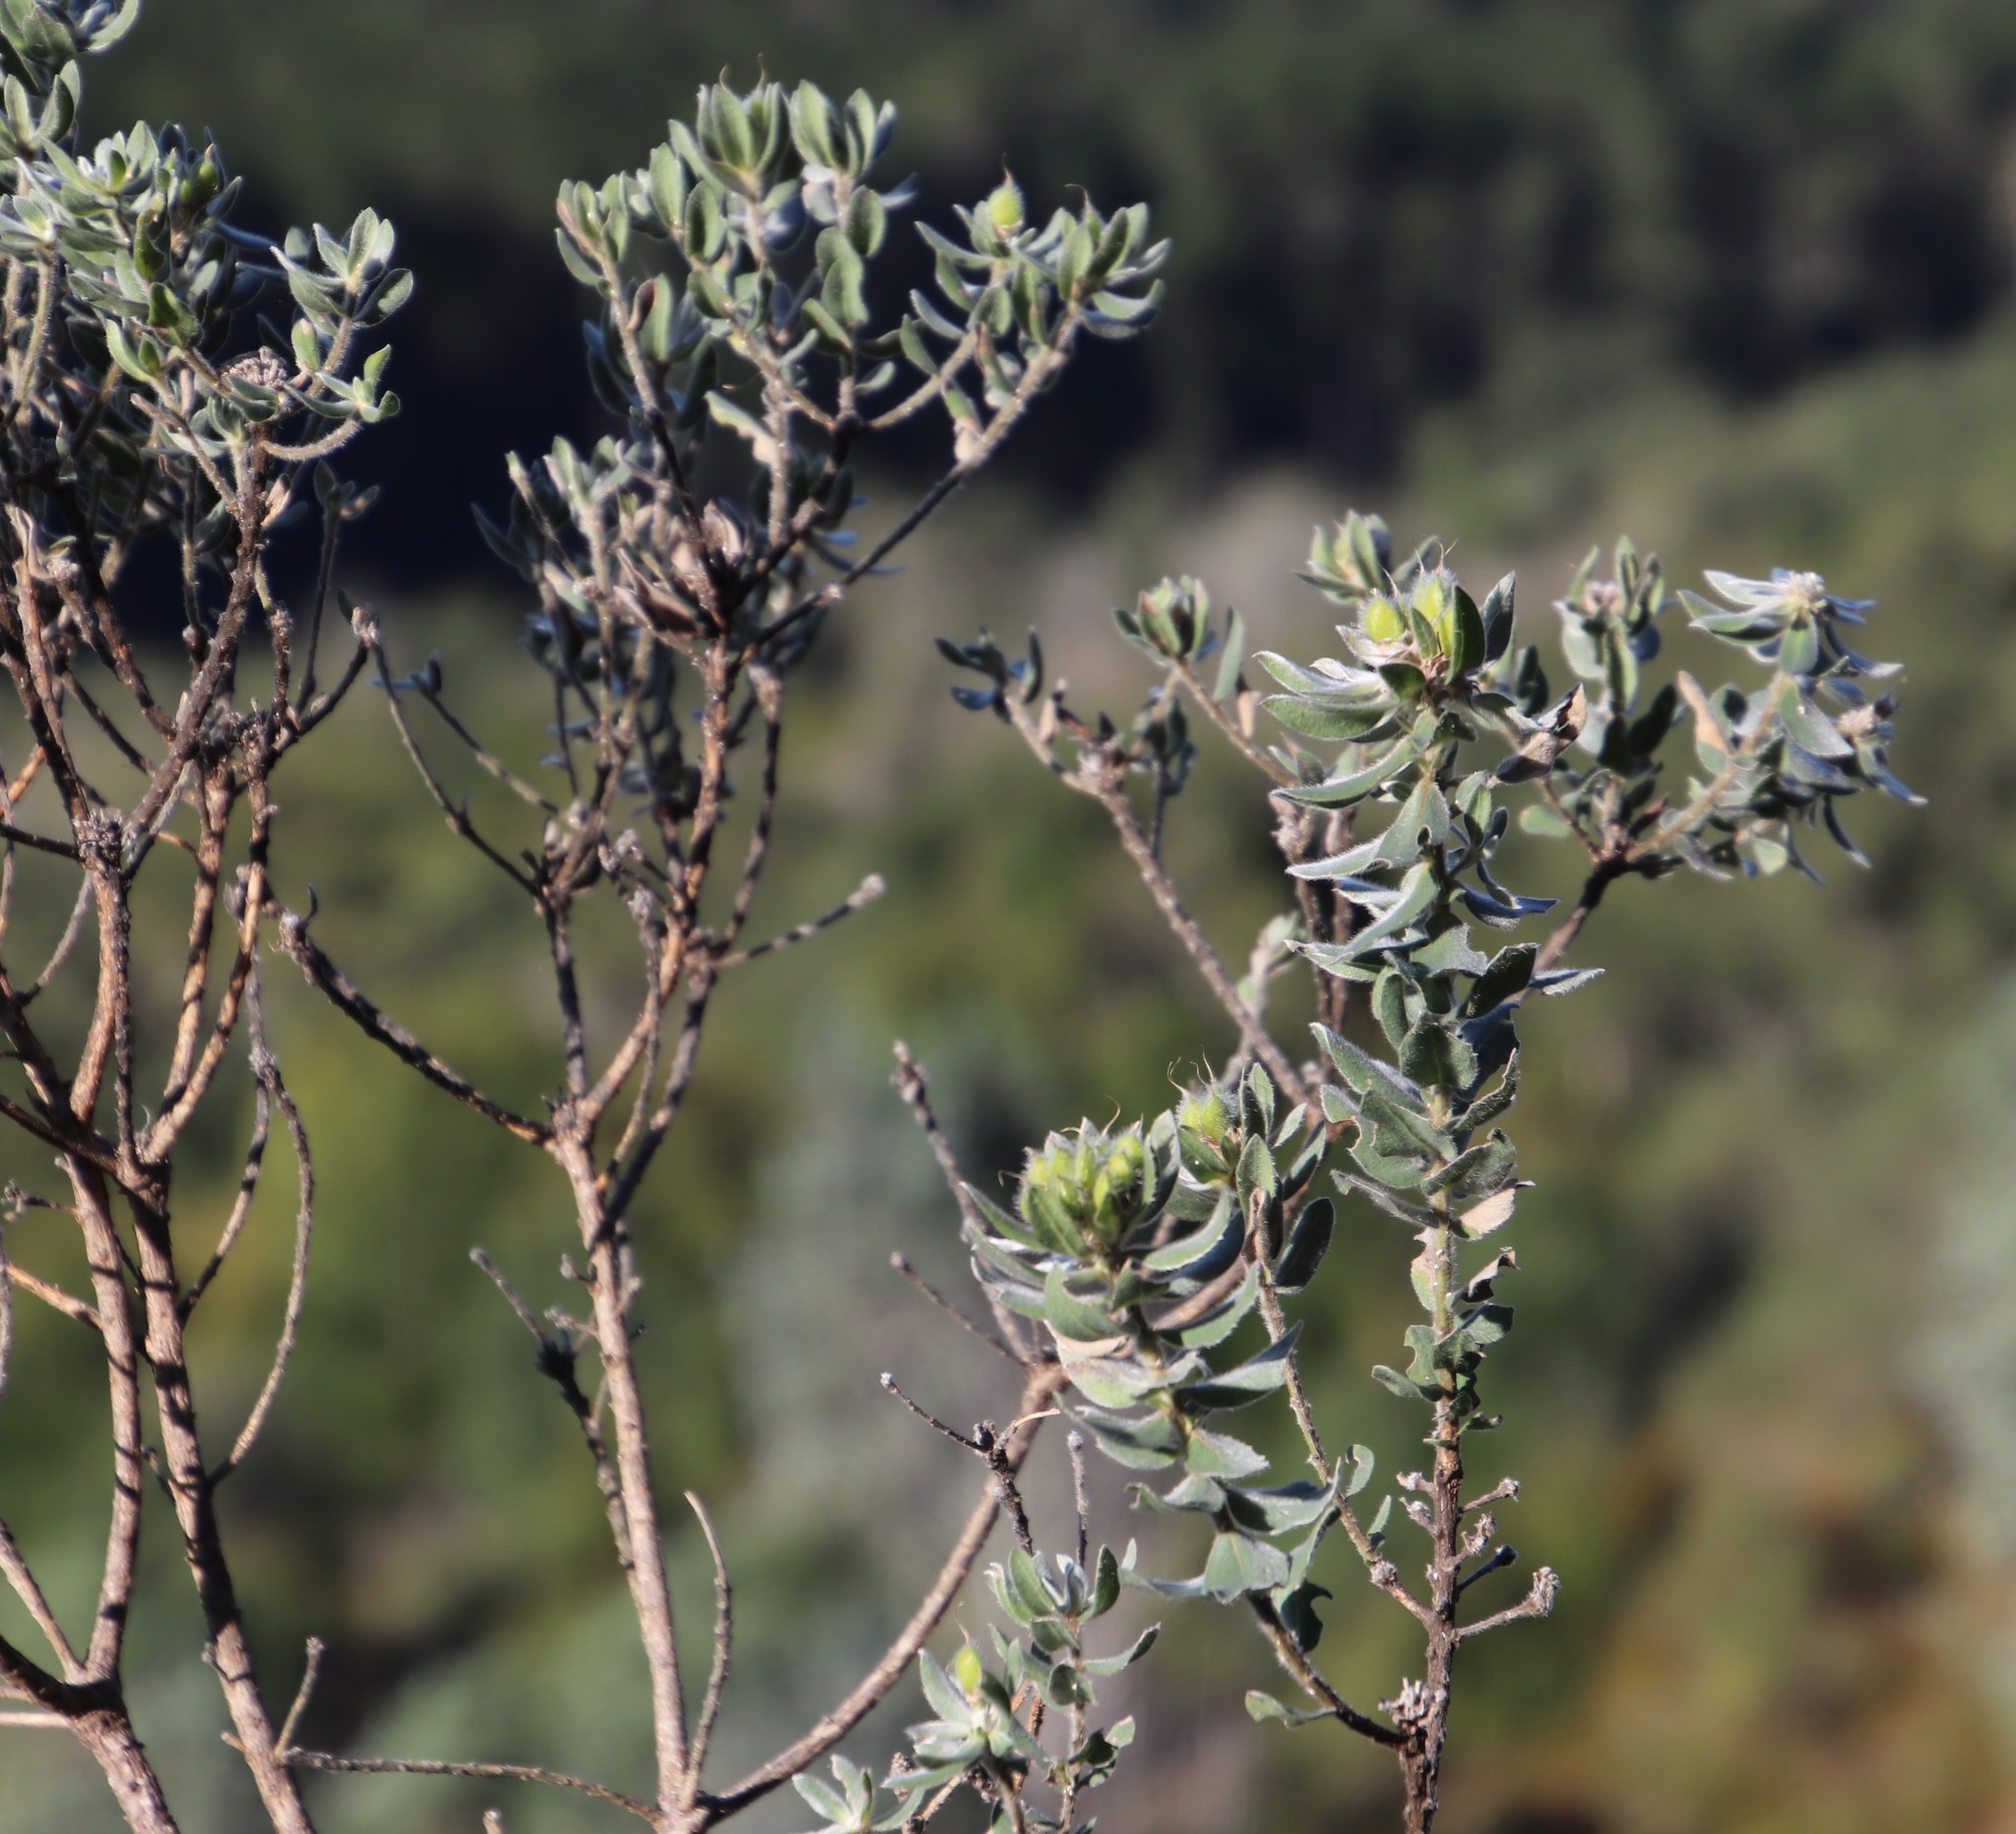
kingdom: Plantae
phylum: Tracheophyta
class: Magnoliopsida
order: Fabales
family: Fabaceae
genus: Xiphotheca
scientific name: Xiphotheca fruticosa
